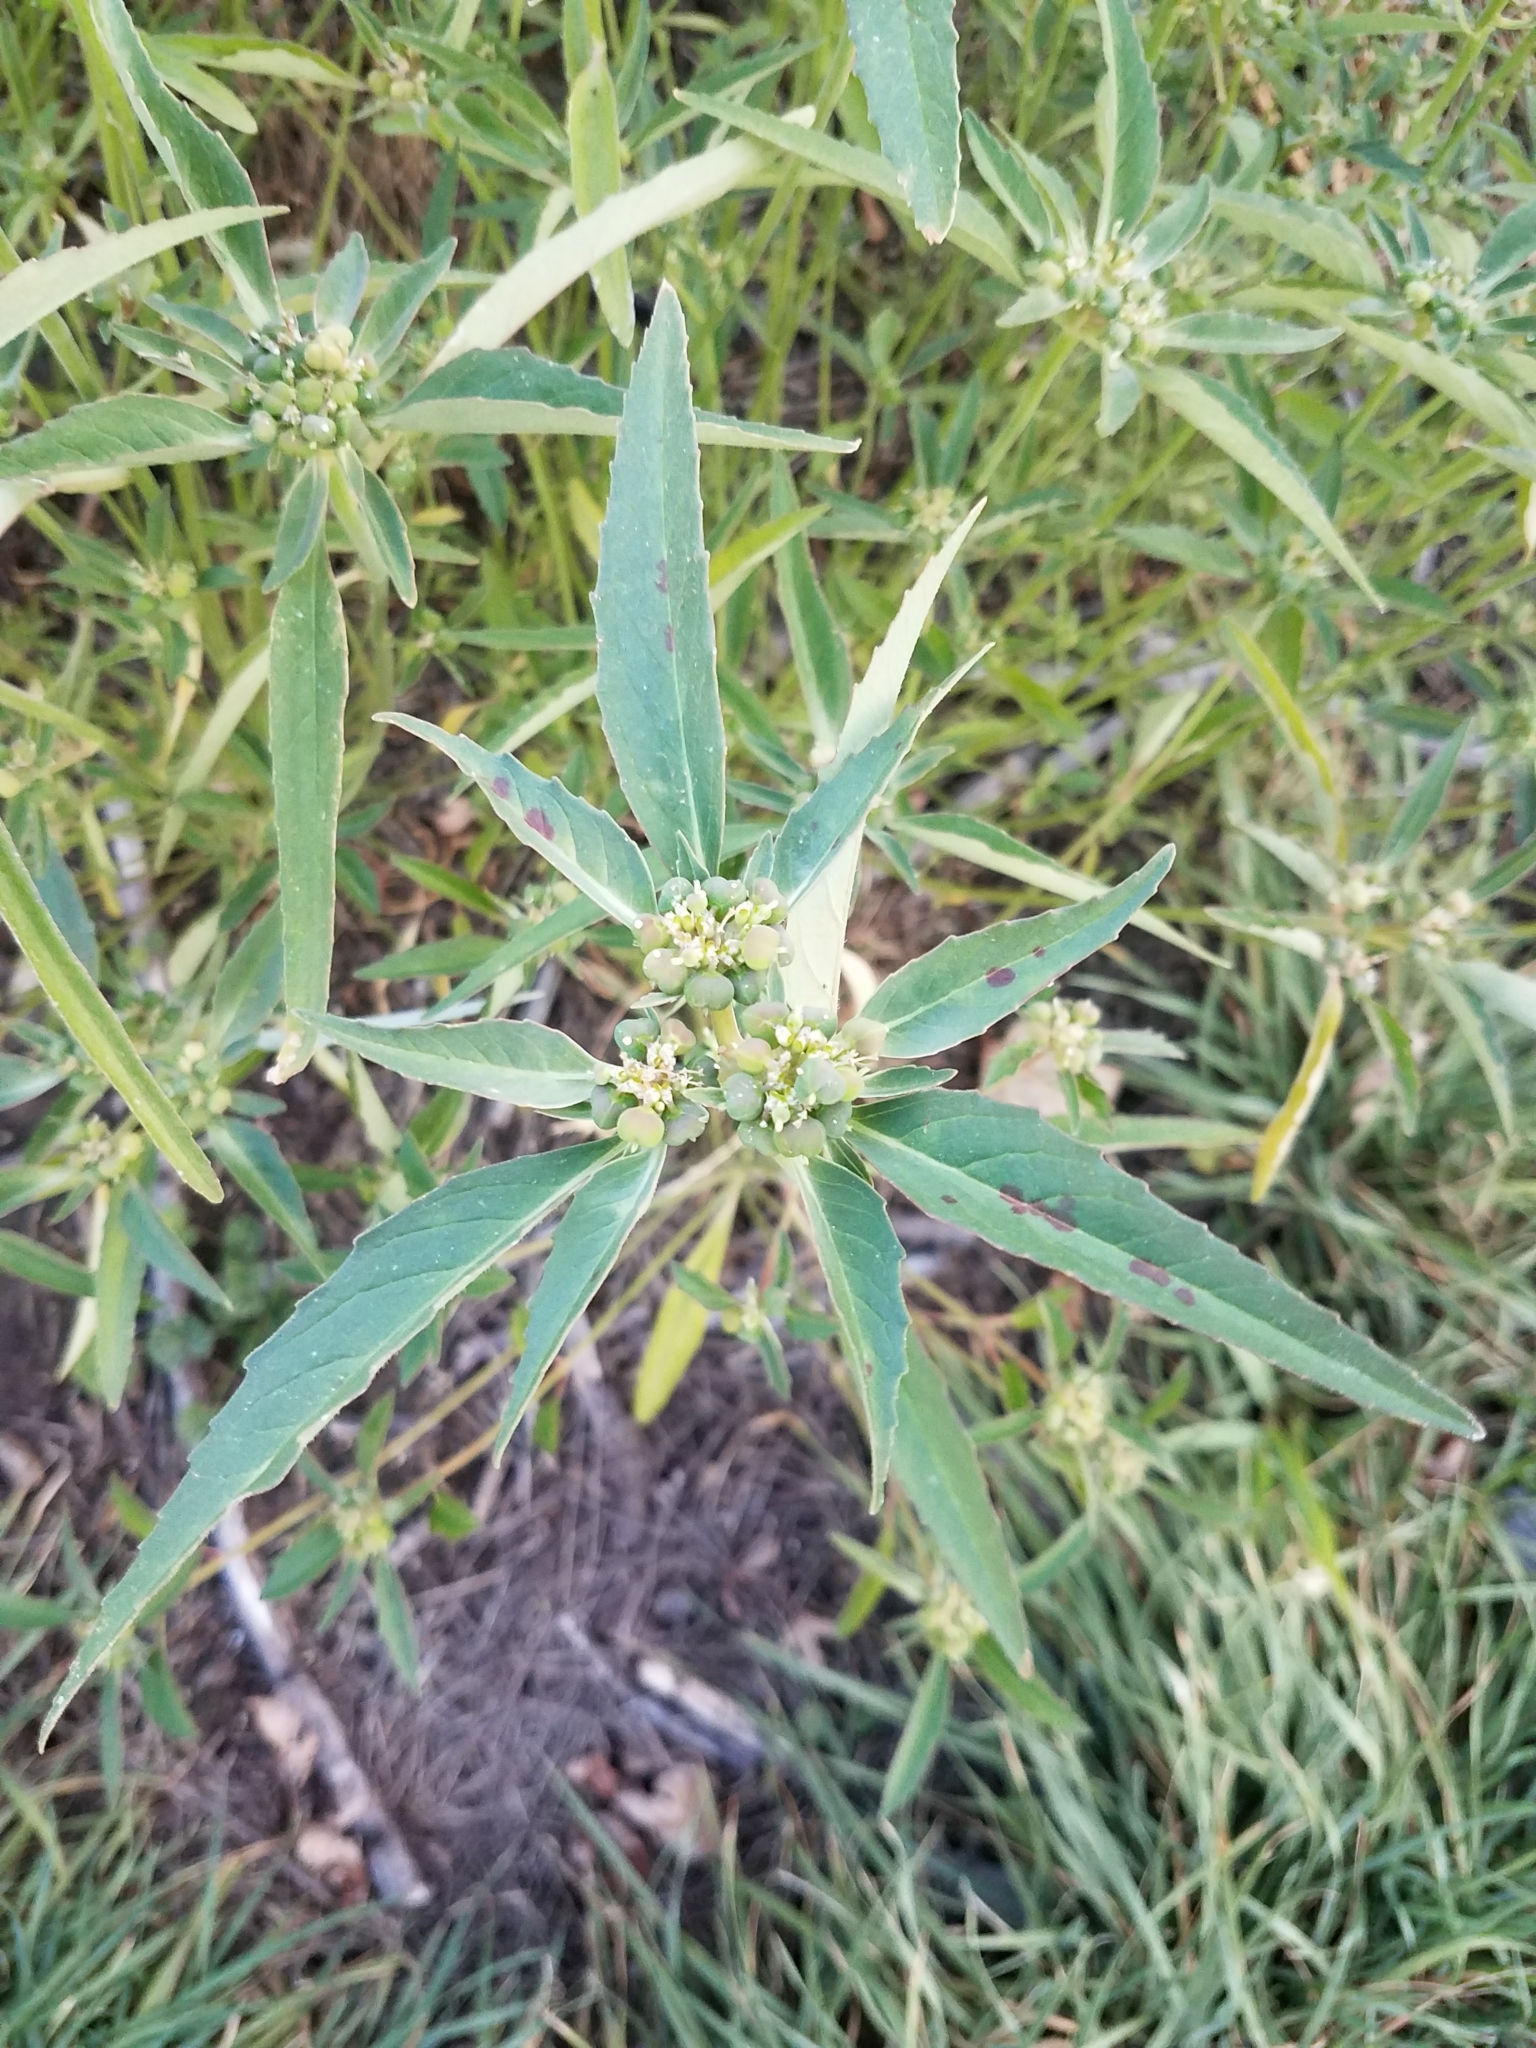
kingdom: Plantae
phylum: Tracheophyta
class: Magnoliopsida
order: Malpighiales
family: Euphorbiaceae
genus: Euphorbia
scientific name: Euphorbia dentata
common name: Dentate spurge
